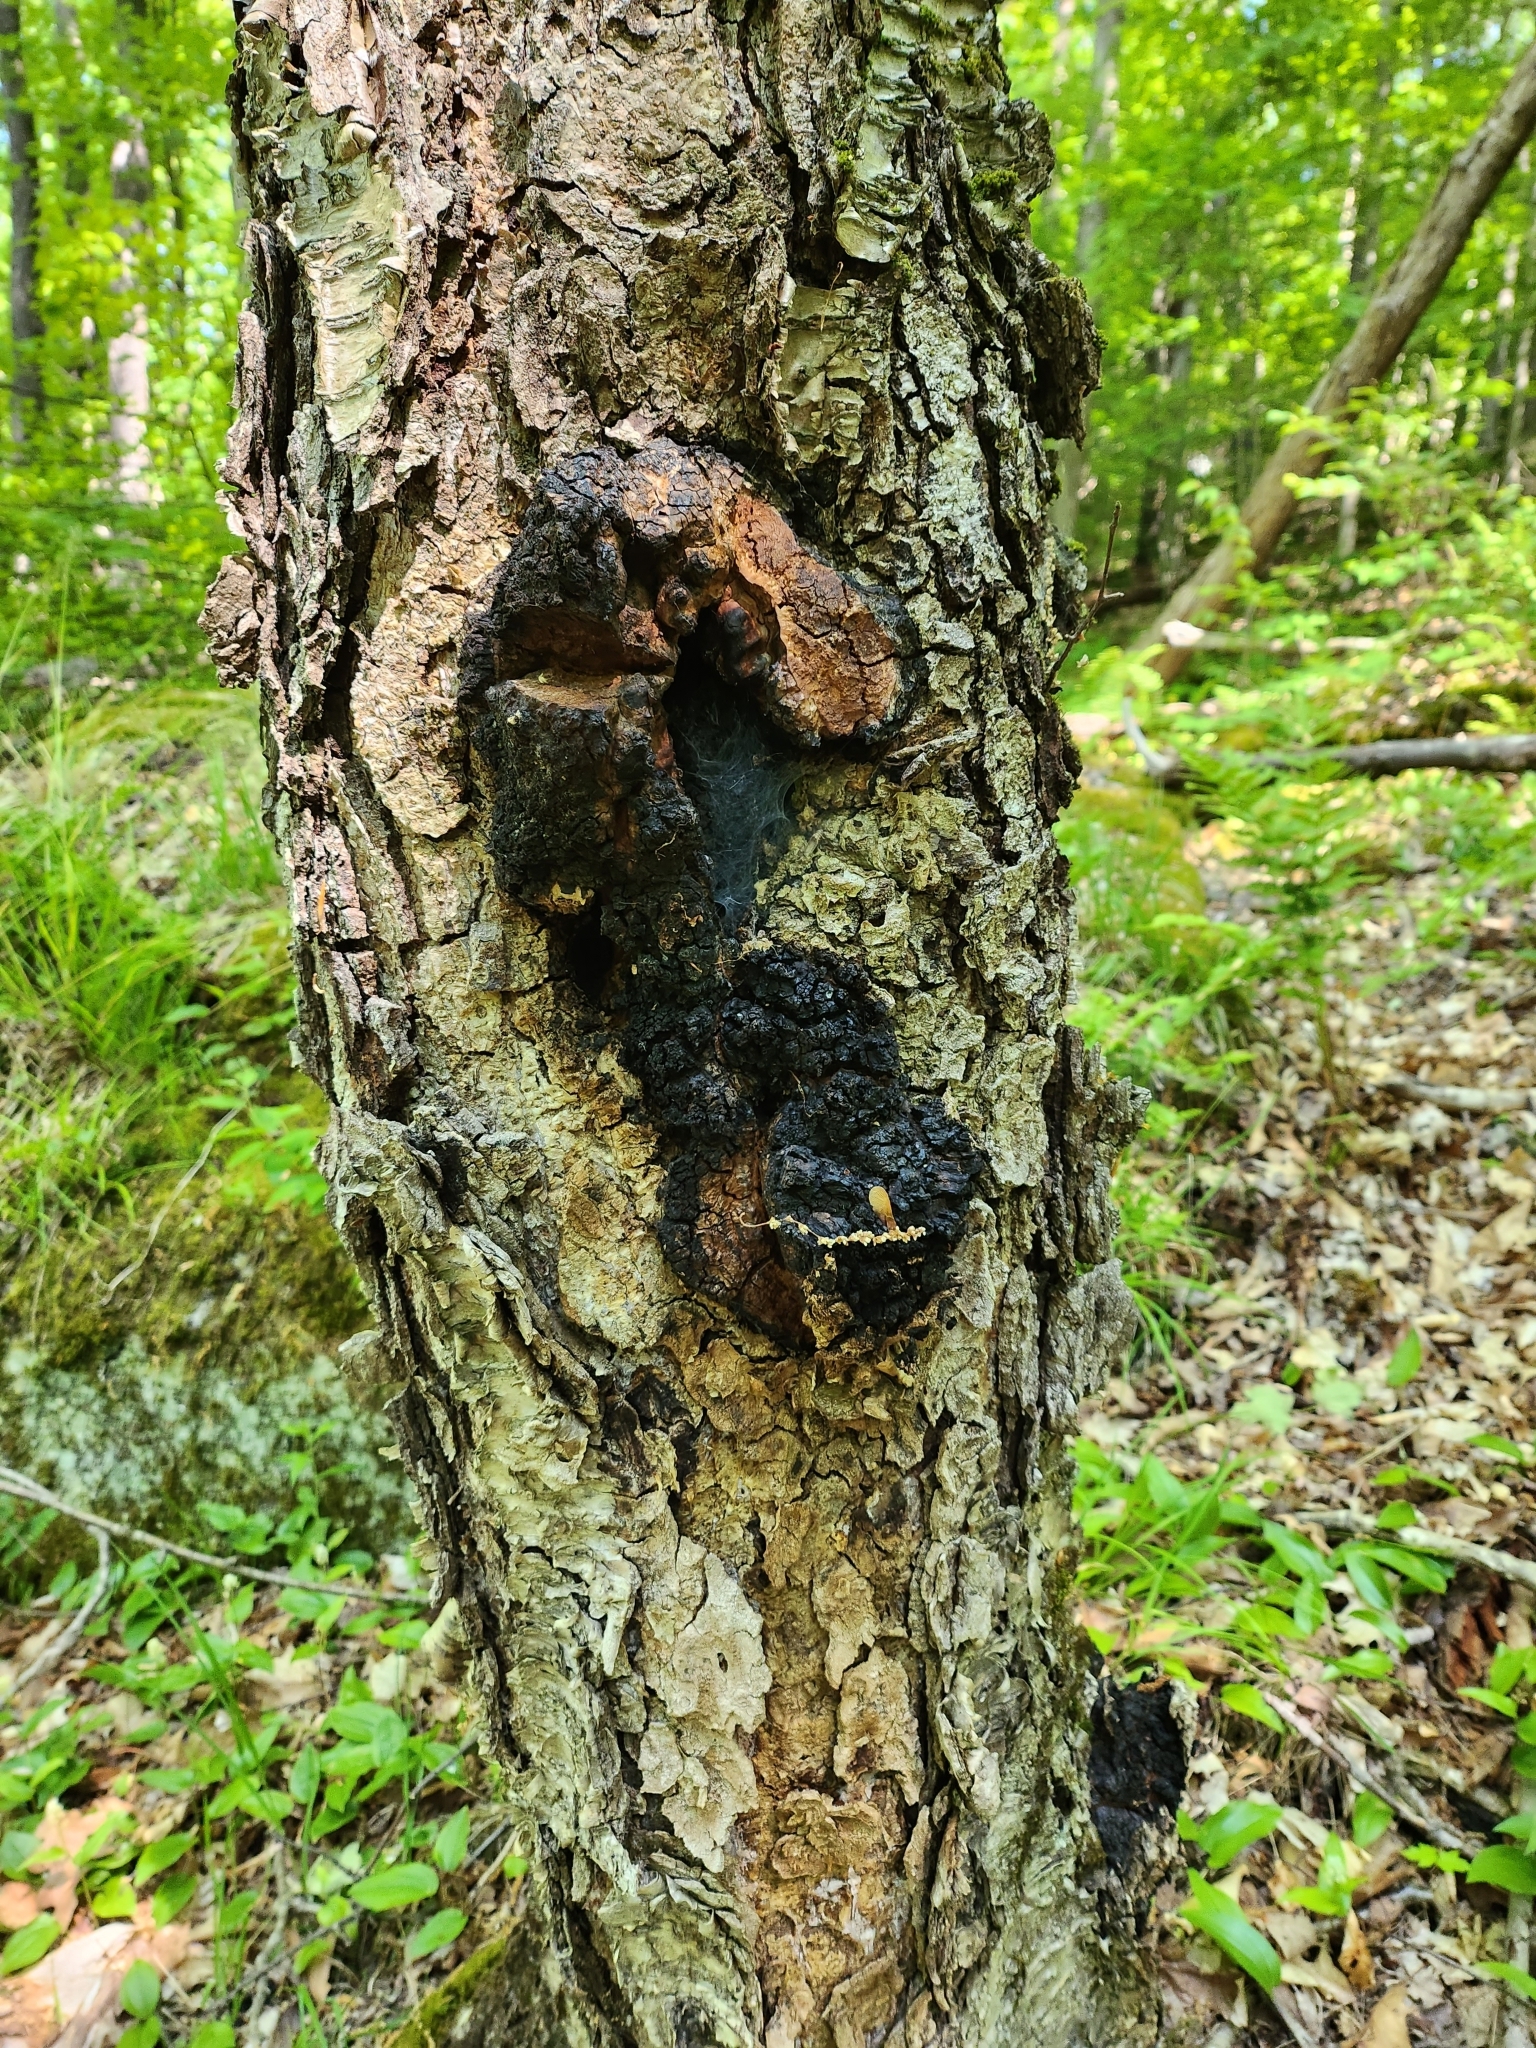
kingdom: Fungi
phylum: Basidiomycota
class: Agaricomycetes
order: Hymenochaetales
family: Hymenochaetaceae
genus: Inonotus
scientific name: Inonotus obliquus
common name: Chaga
